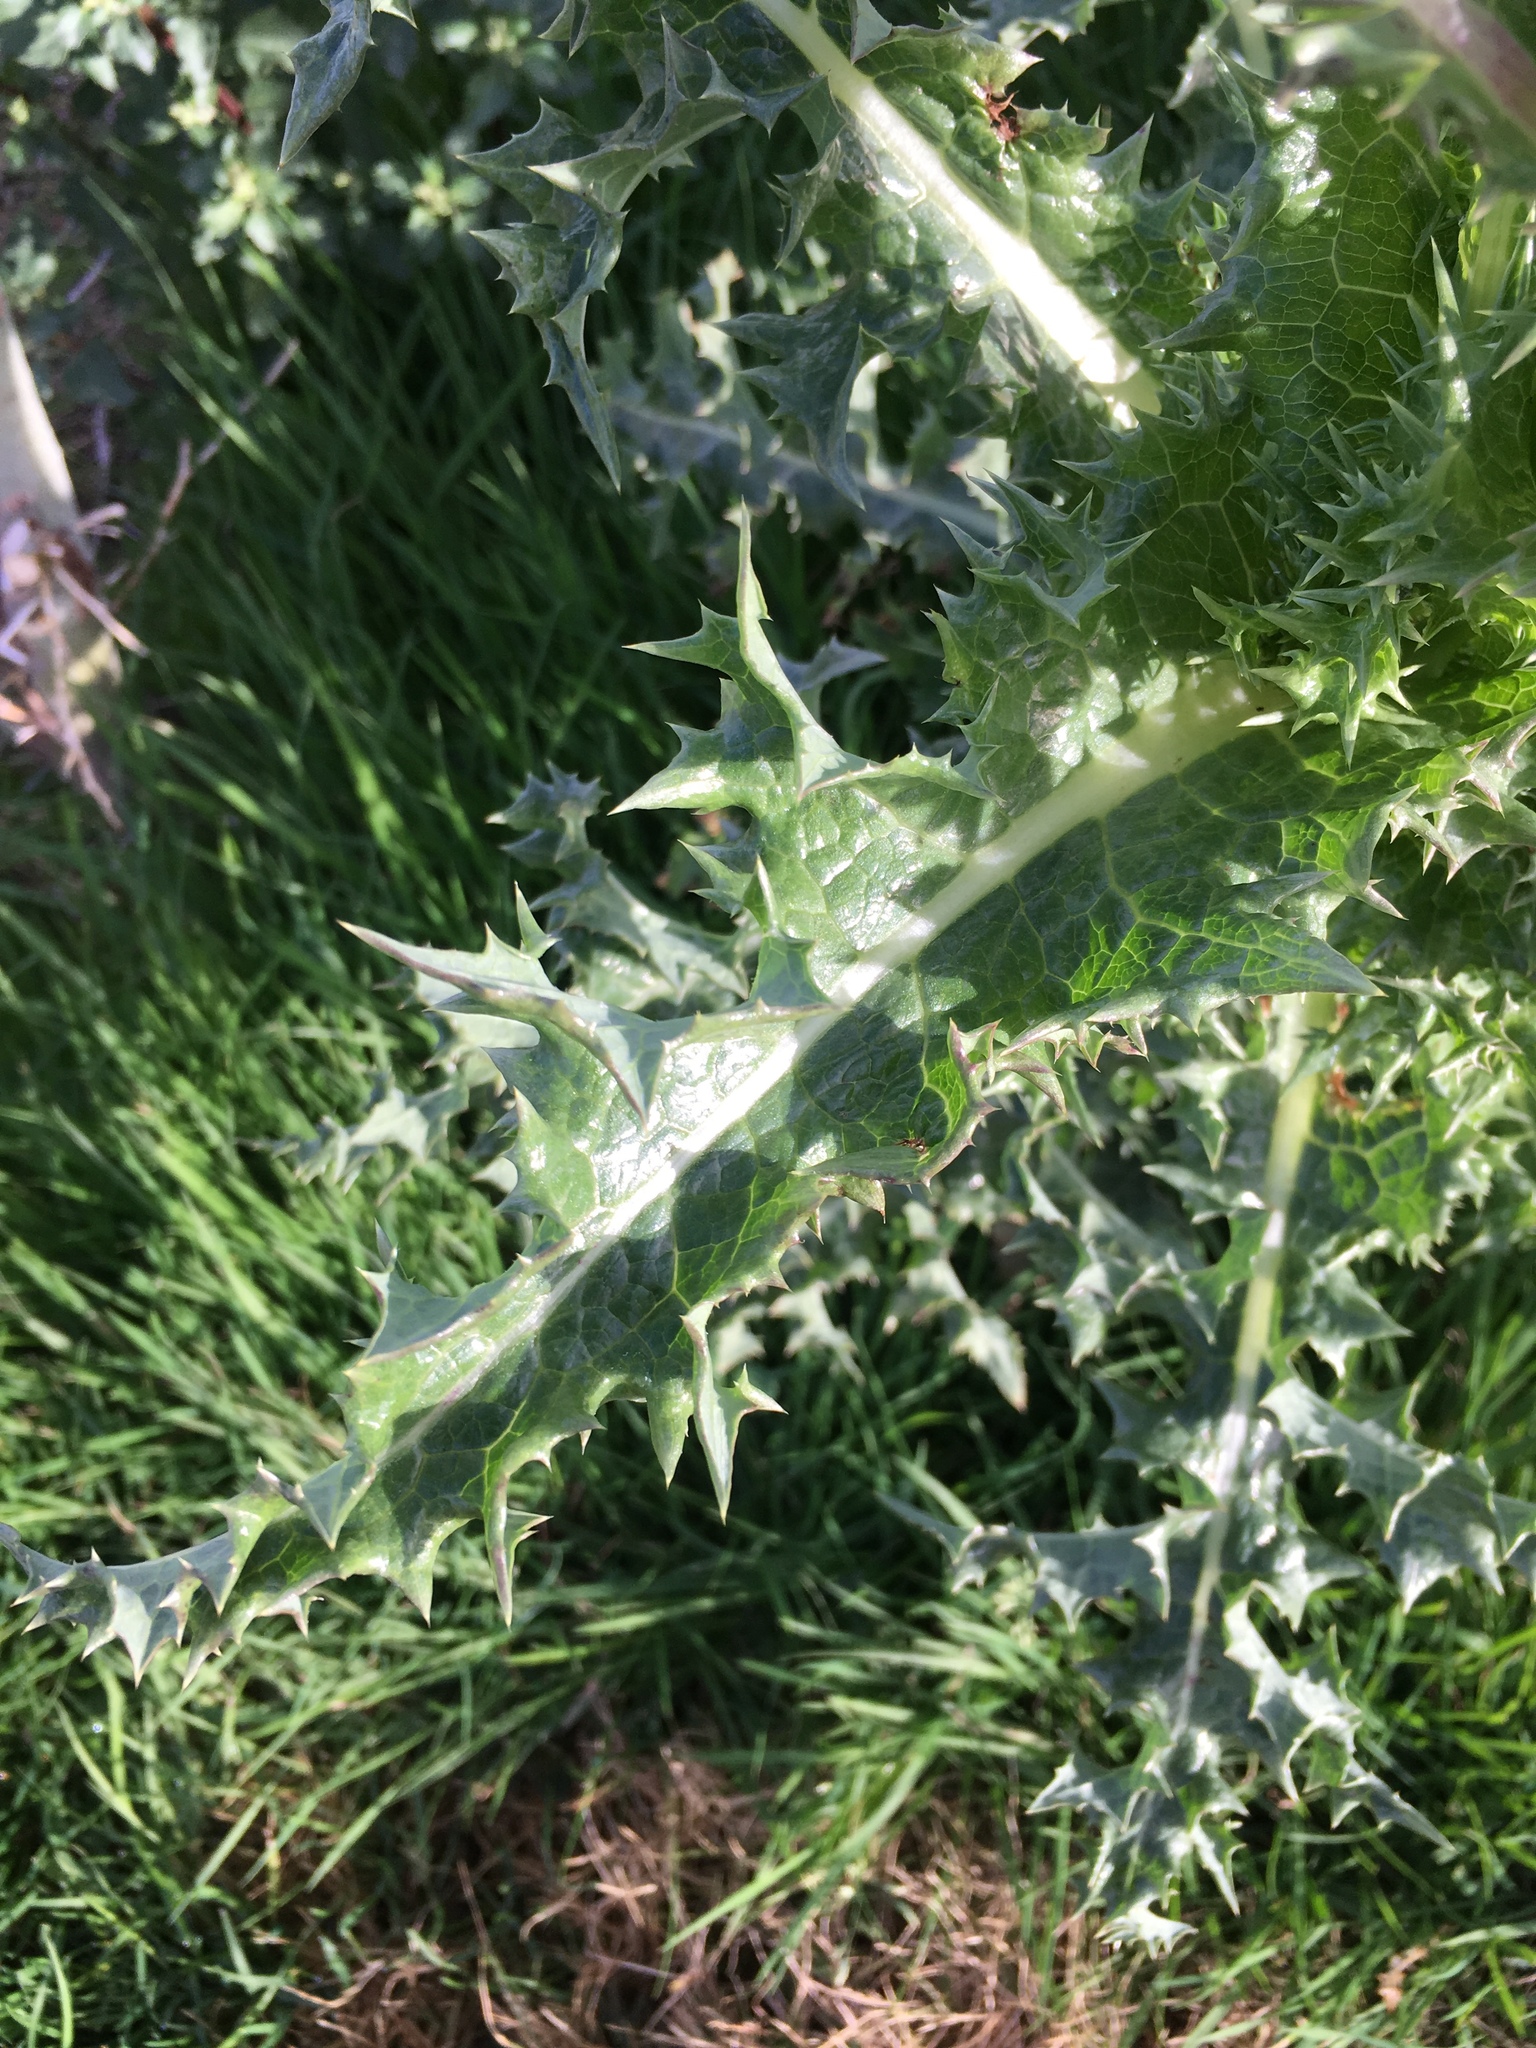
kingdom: Plantae
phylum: Tracheophyta
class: Magnoliopsida
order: Asterales
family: Asteraceae
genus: Sonchus
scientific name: Sonchus asper
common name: Prickly sow-thistle
